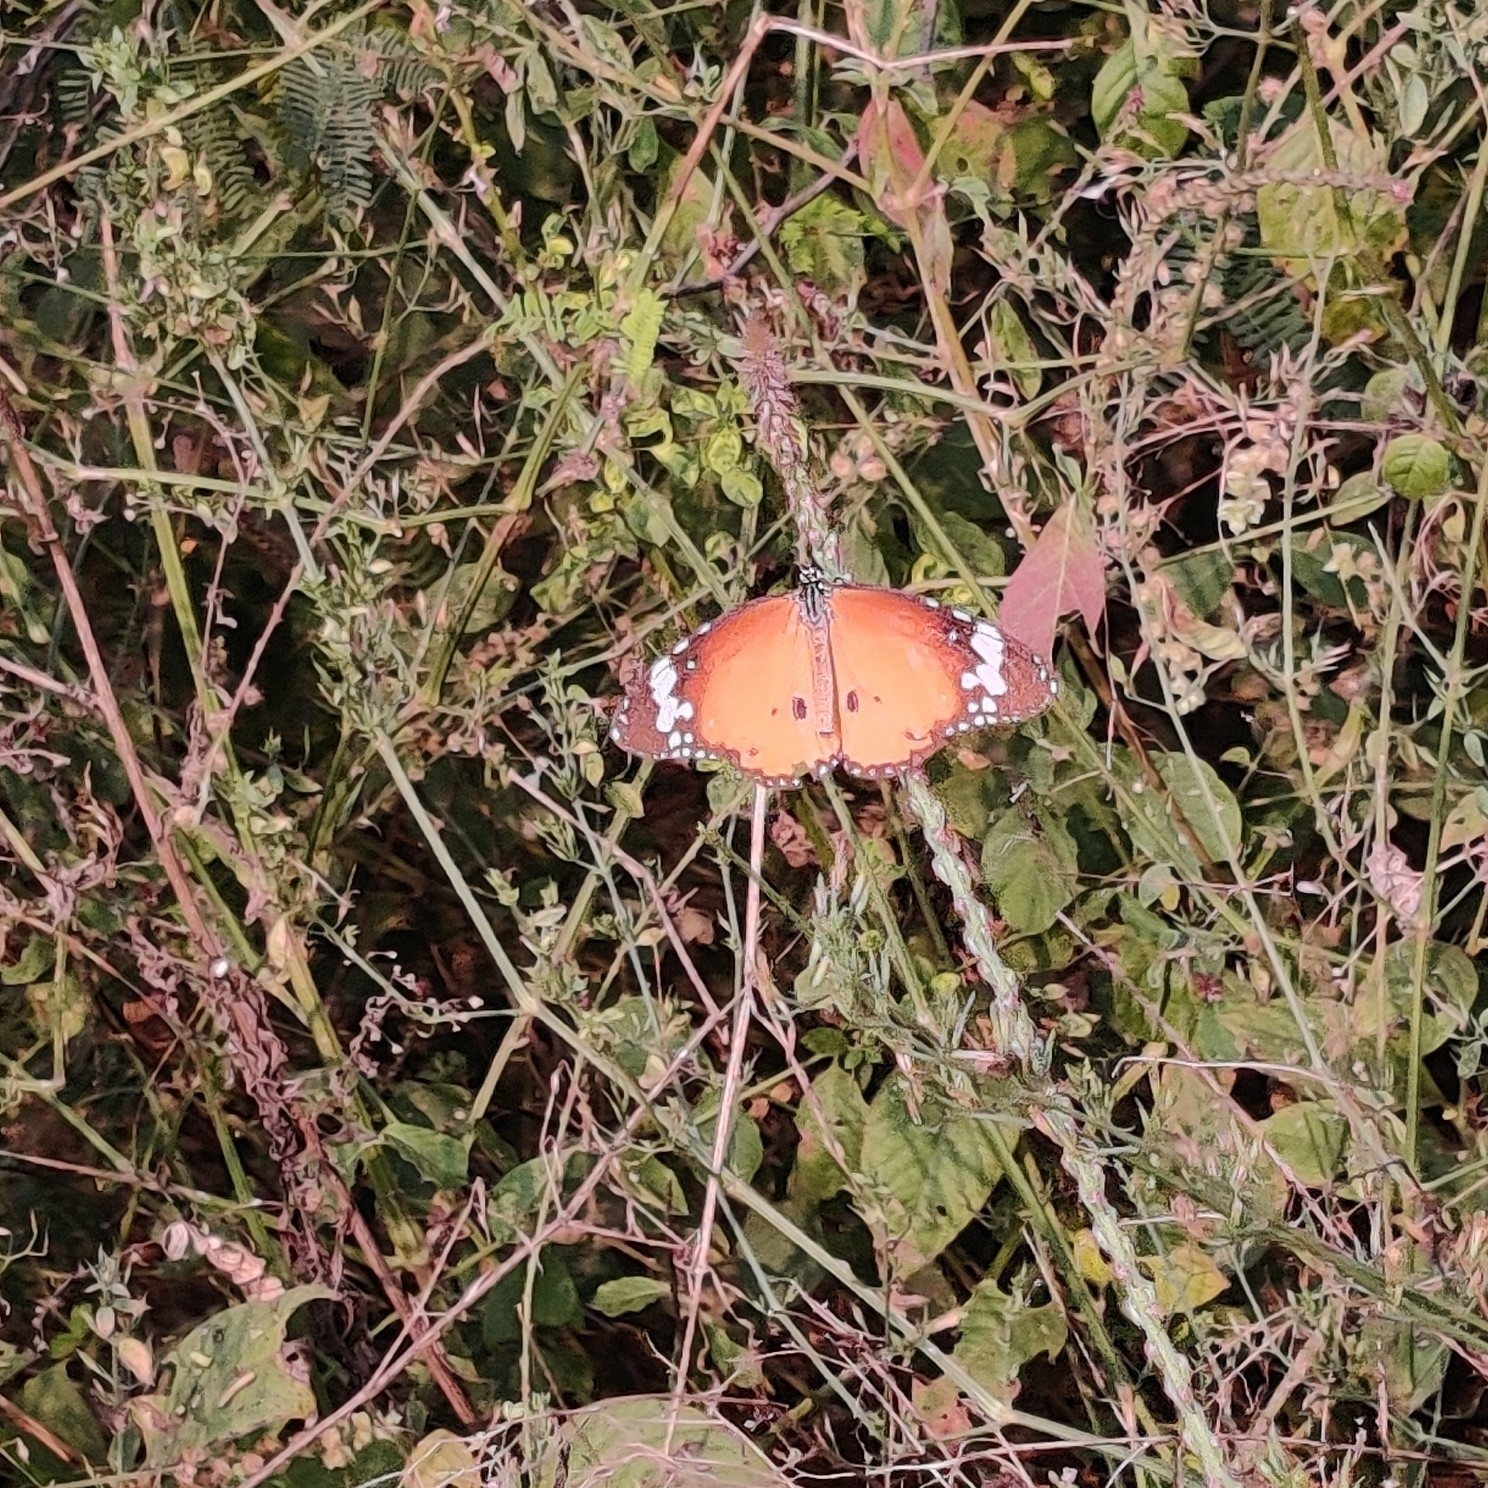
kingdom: Animalia
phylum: Arthropoda
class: Insecta
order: Lepidoptera
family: Nymphalidae
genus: Danaus
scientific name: Danaus chrysippus
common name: Plain tiger
